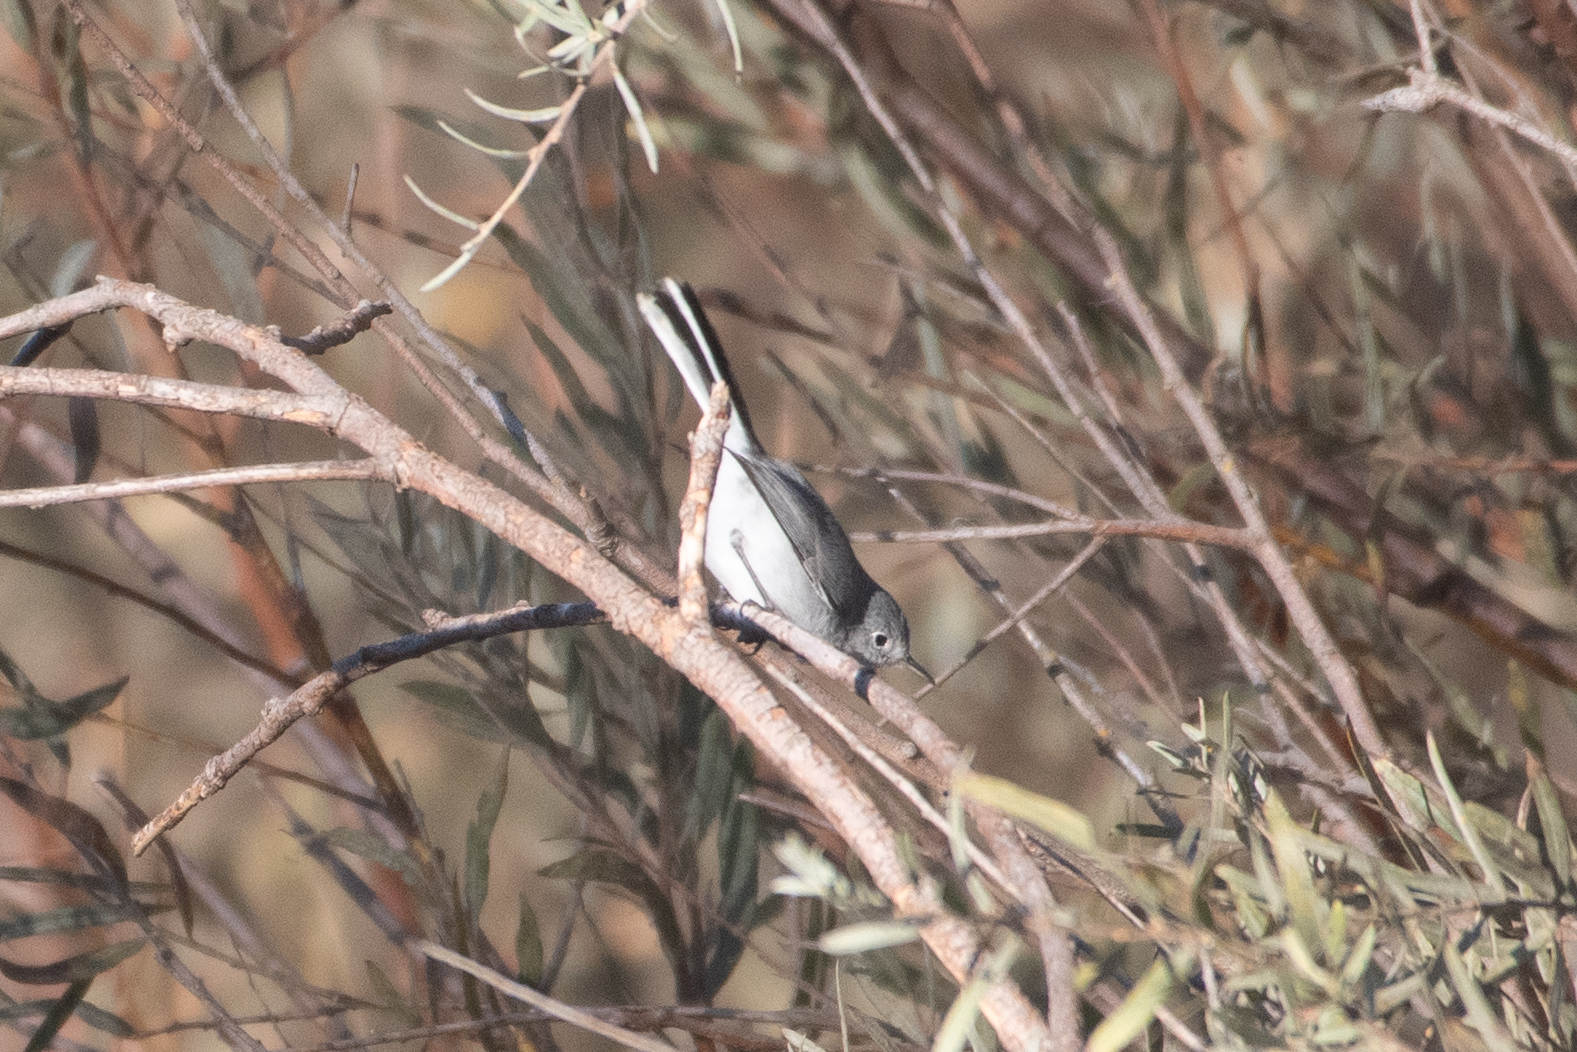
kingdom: Animalia
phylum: Chordata
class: Aves
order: Passeriformes
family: Polioptilidae
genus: Polioptila
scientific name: Polioptila caerulea
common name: Blue-gray gnatcatcher
